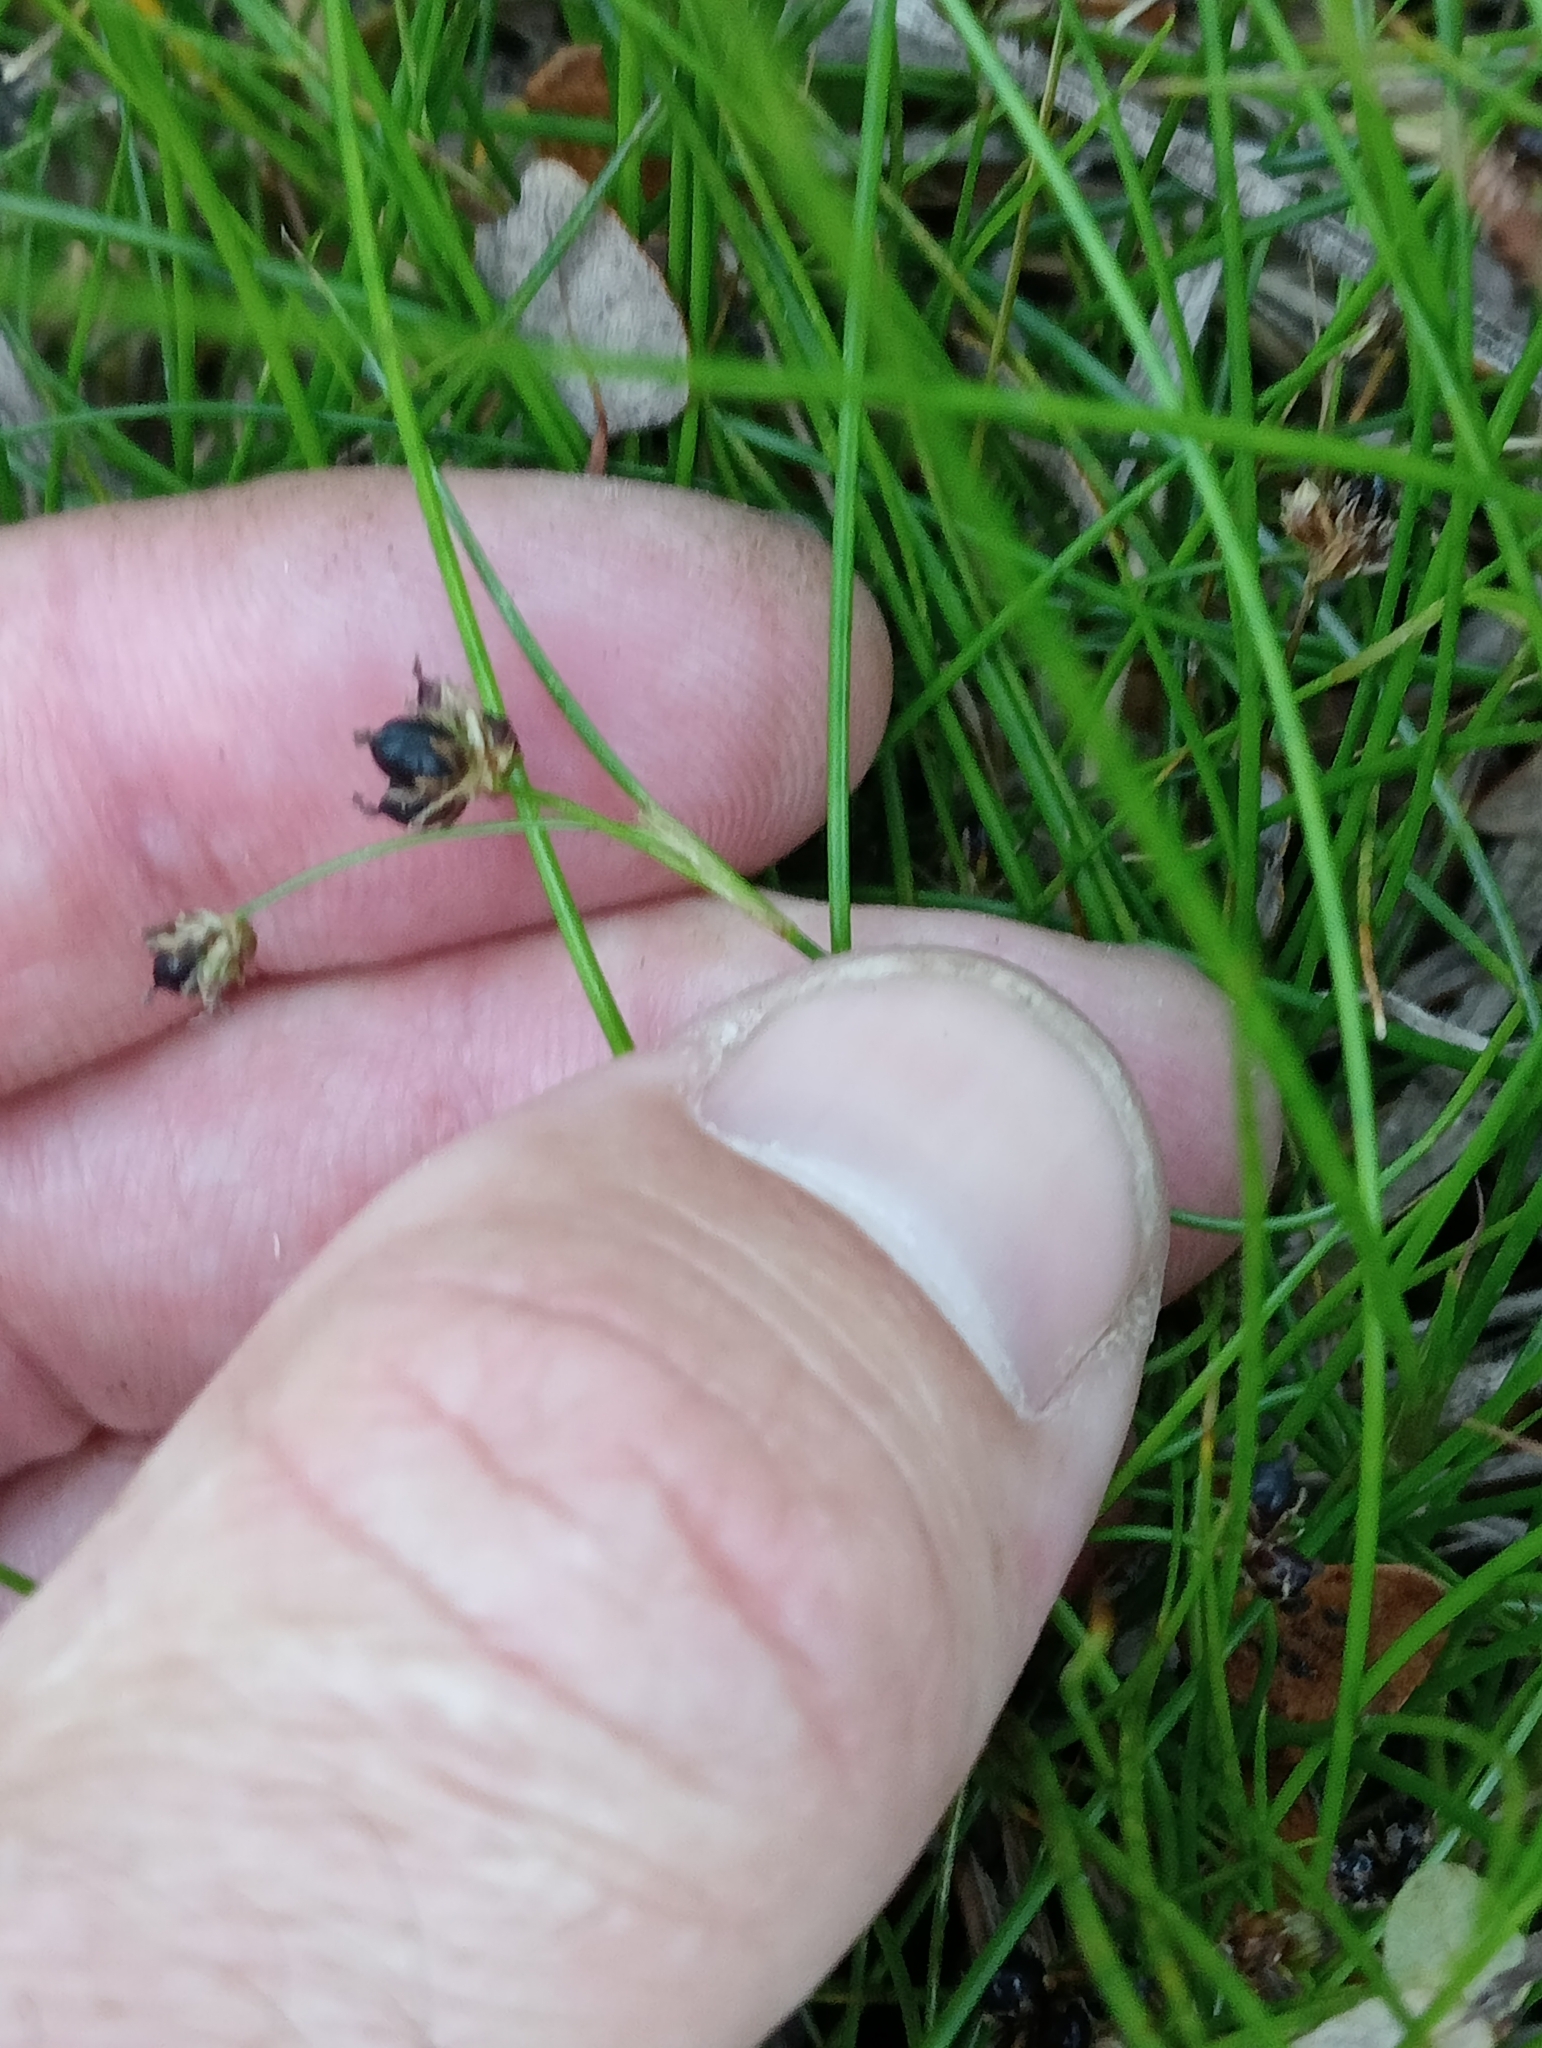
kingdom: Plantae
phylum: Tracheophyta
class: Liliopsida
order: Poales
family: Juncaceae
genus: Juncus
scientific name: Juncus novae-zelandiae
